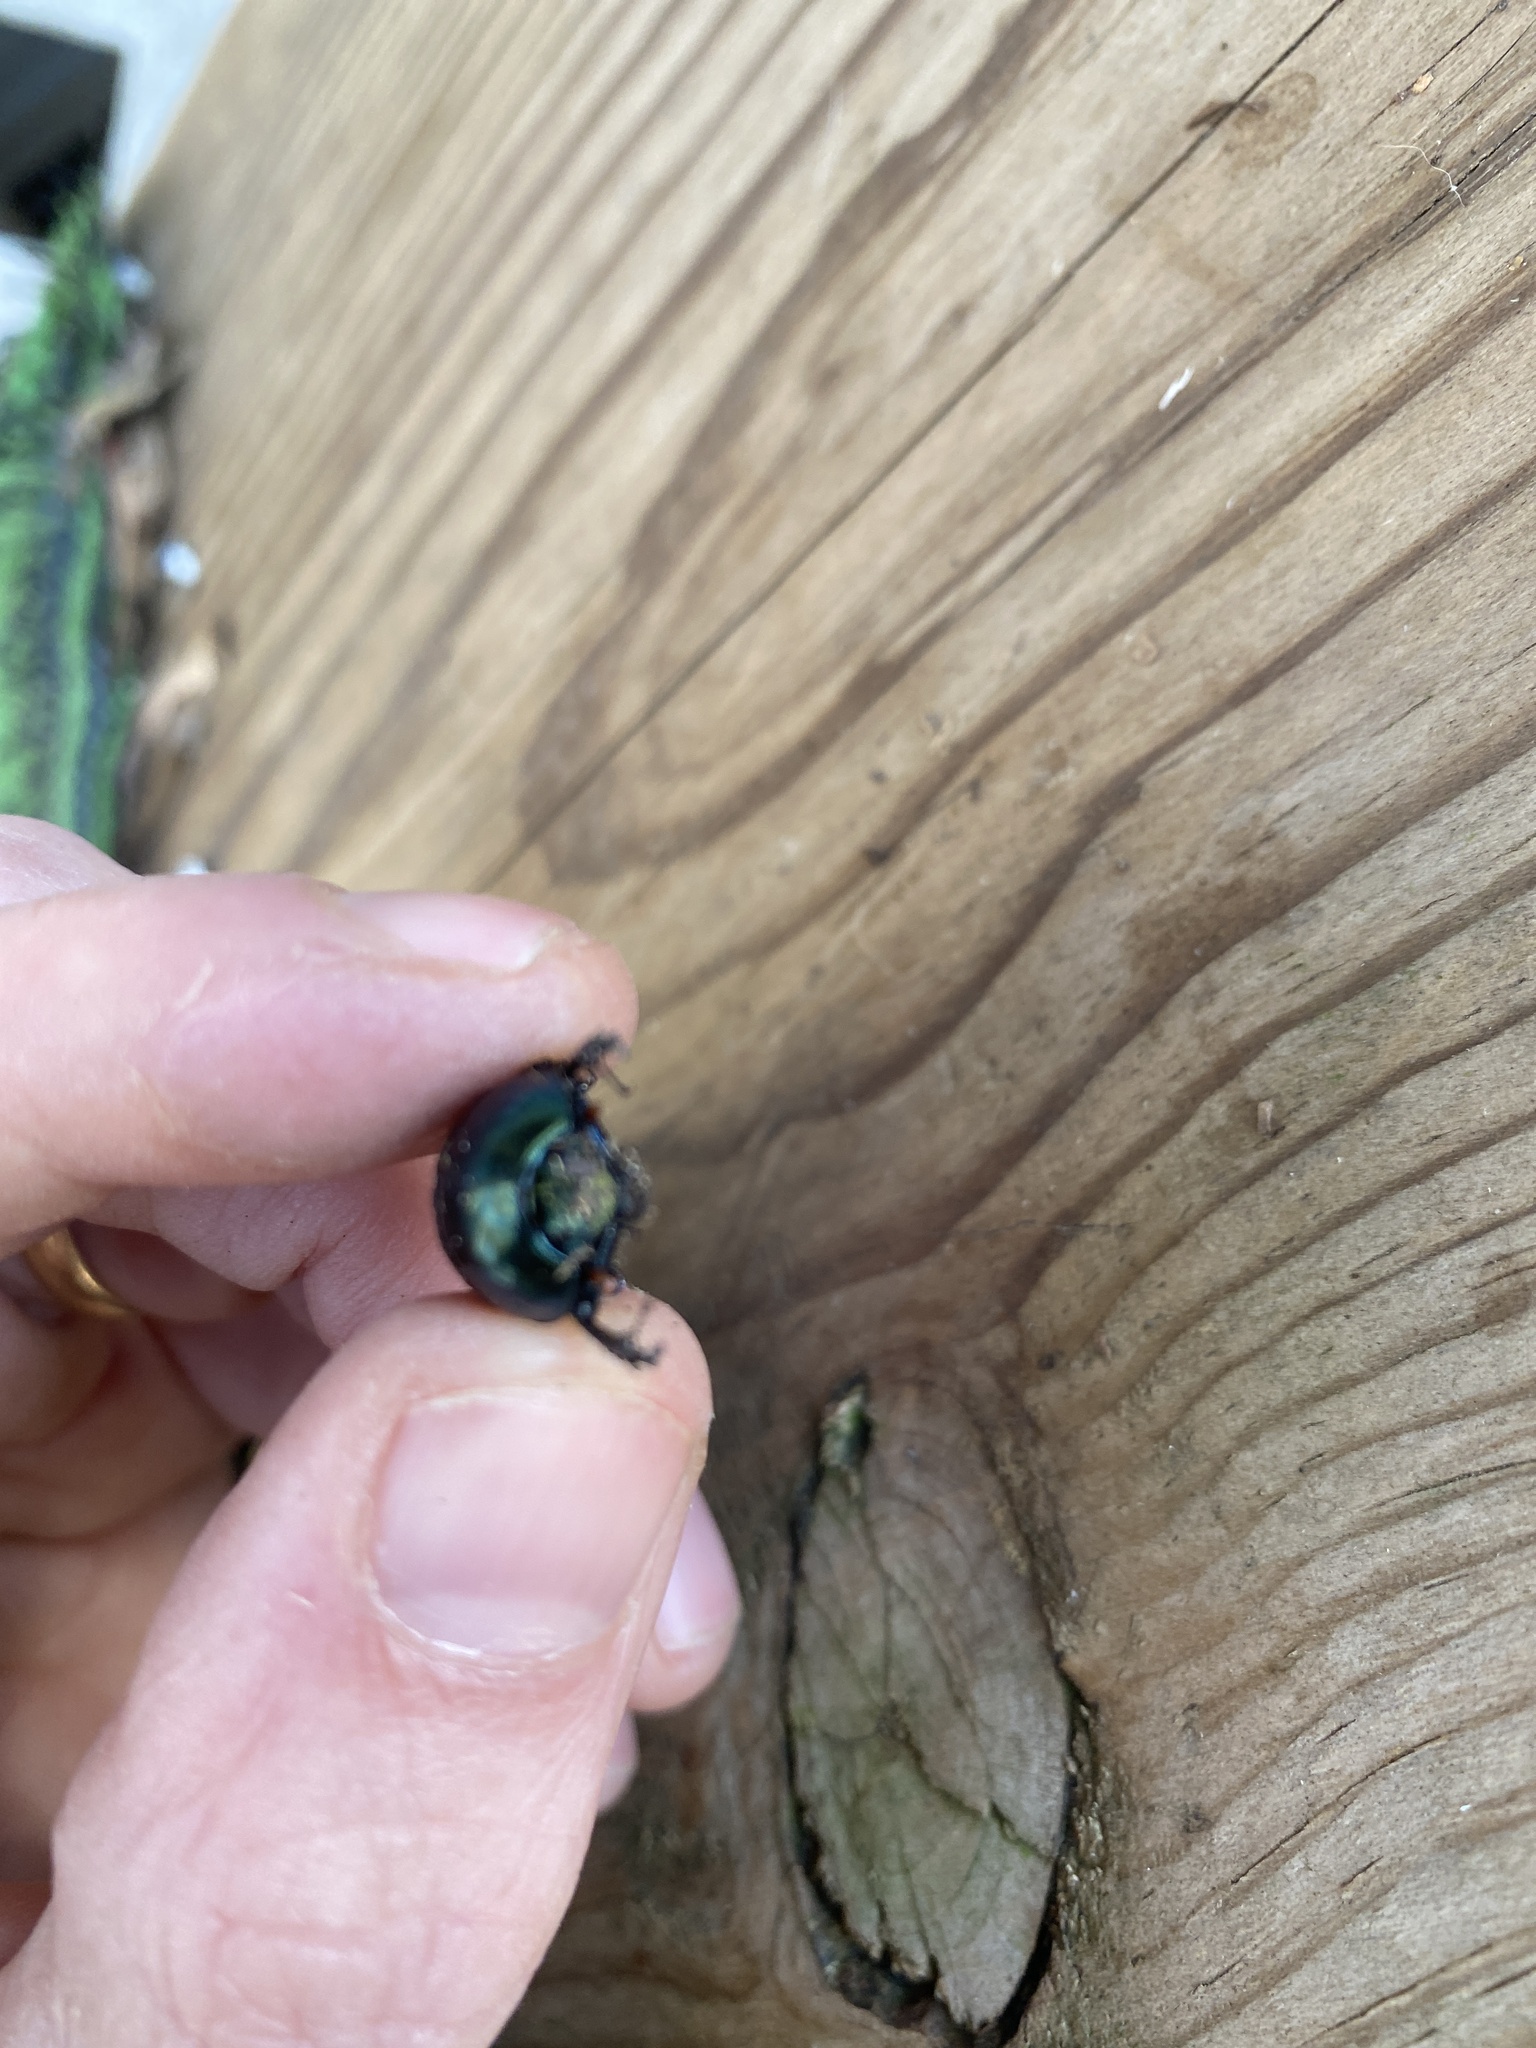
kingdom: Animalia
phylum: Arthropoda
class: Insecta
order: Coleoptera
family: Geotrupidae
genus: Geotrupes
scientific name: Geotrupes splendidus
